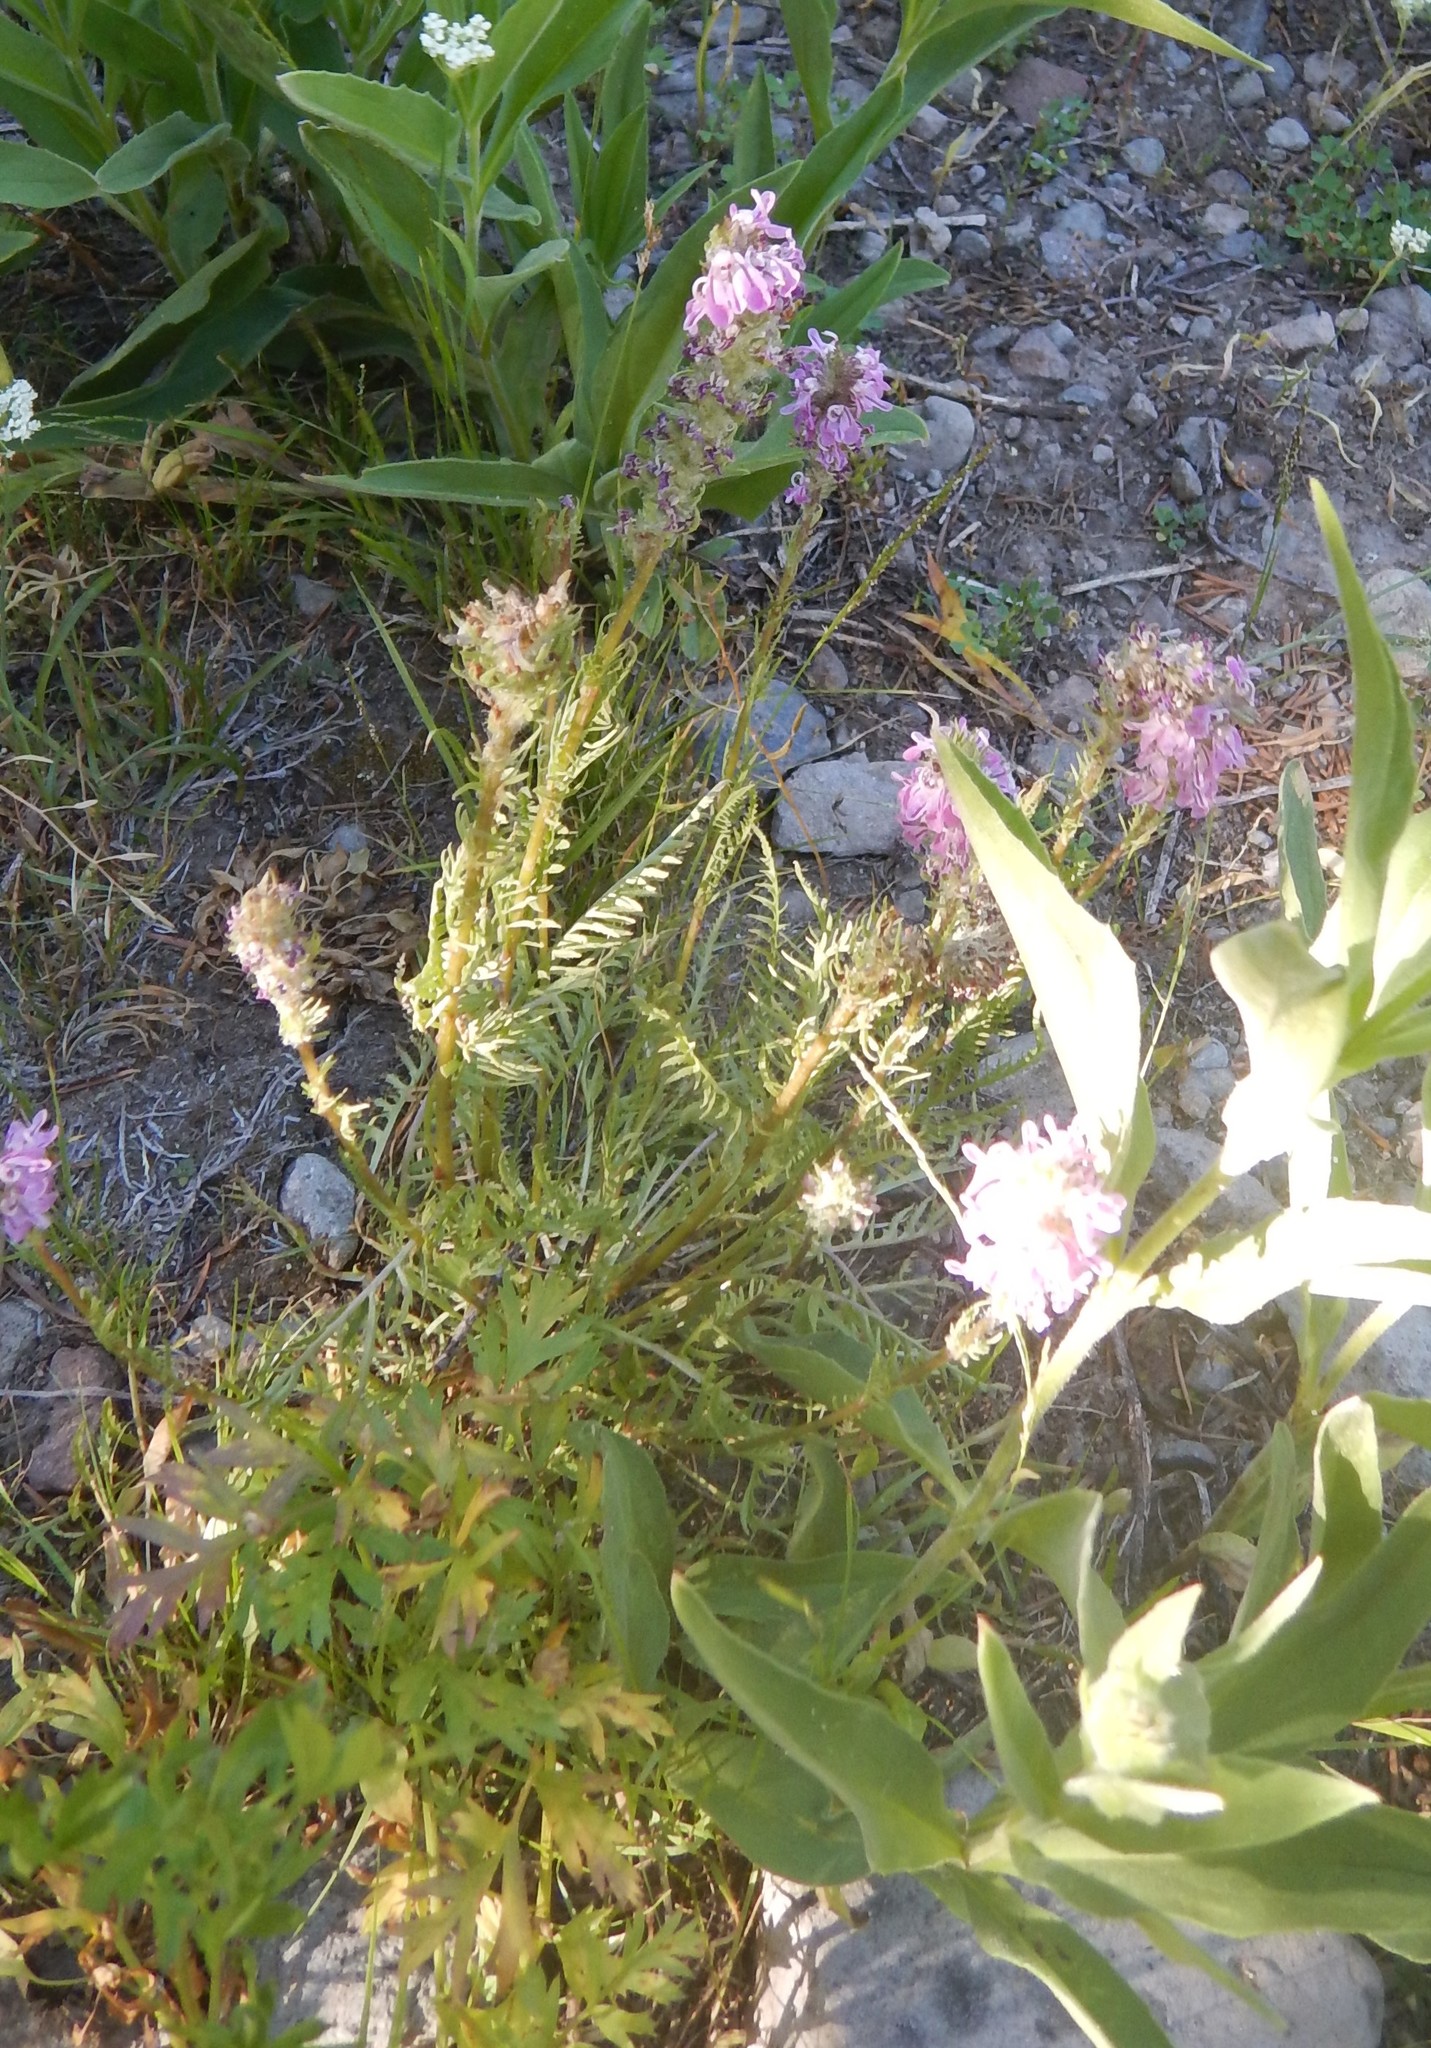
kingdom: Plantae
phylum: Tracheophyta
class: Magnoliopsida
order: Lamiales
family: Orobanchaceae
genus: Pedicularis
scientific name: Pedicularis attollens
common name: Slender pedicularis
